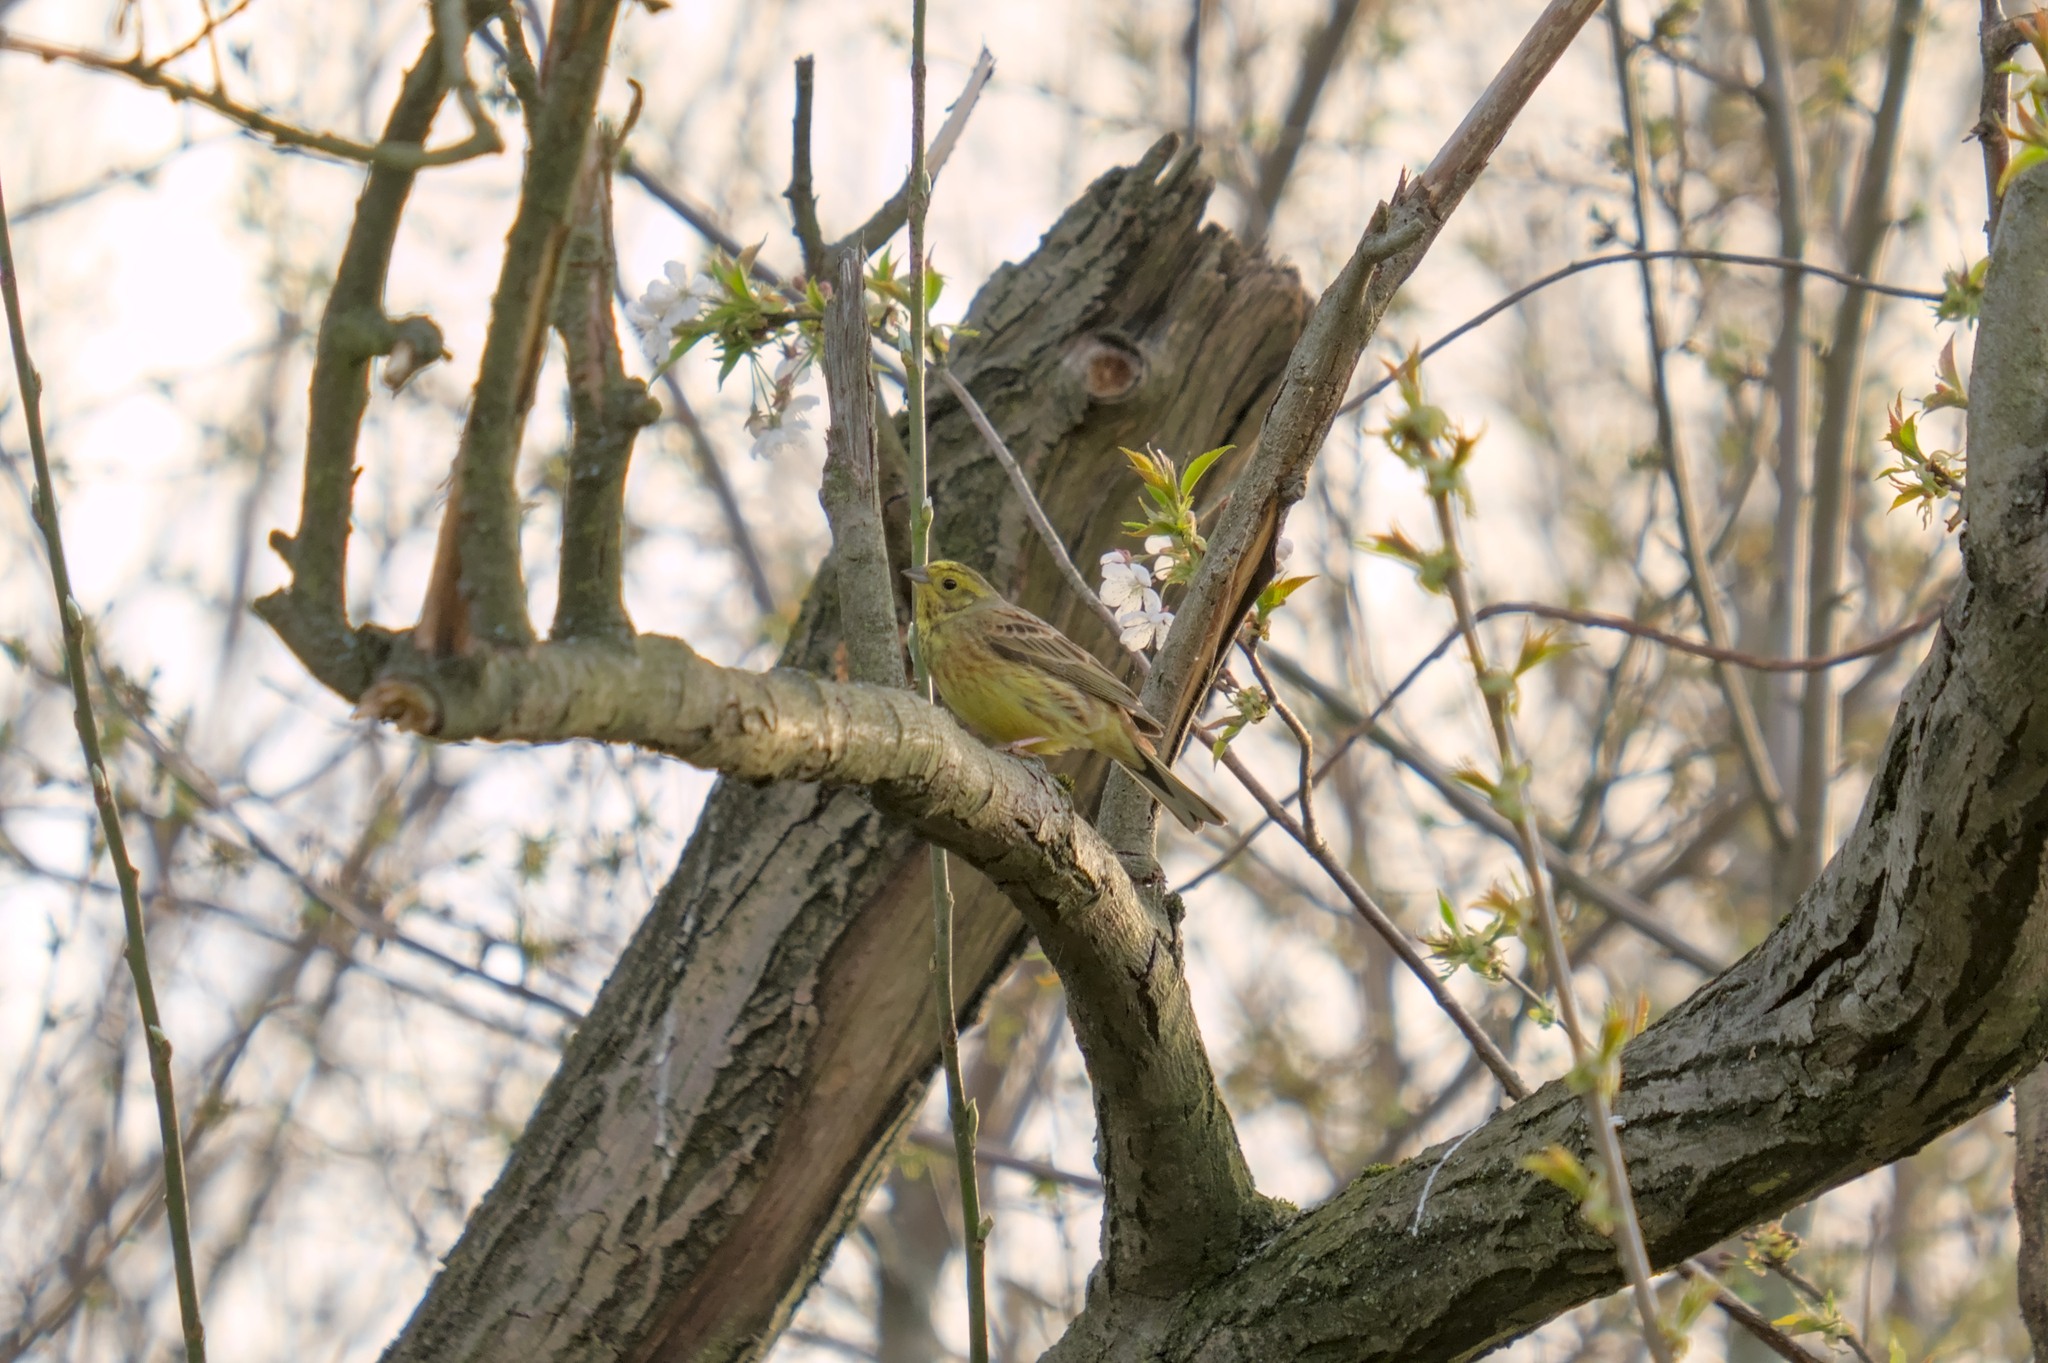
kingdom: Animalia
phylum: Chordata
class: Aves
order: Passeriformes
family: Emberizidae
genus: Emberiza
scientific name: Emberiza citrinella
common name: Yellowhammer
